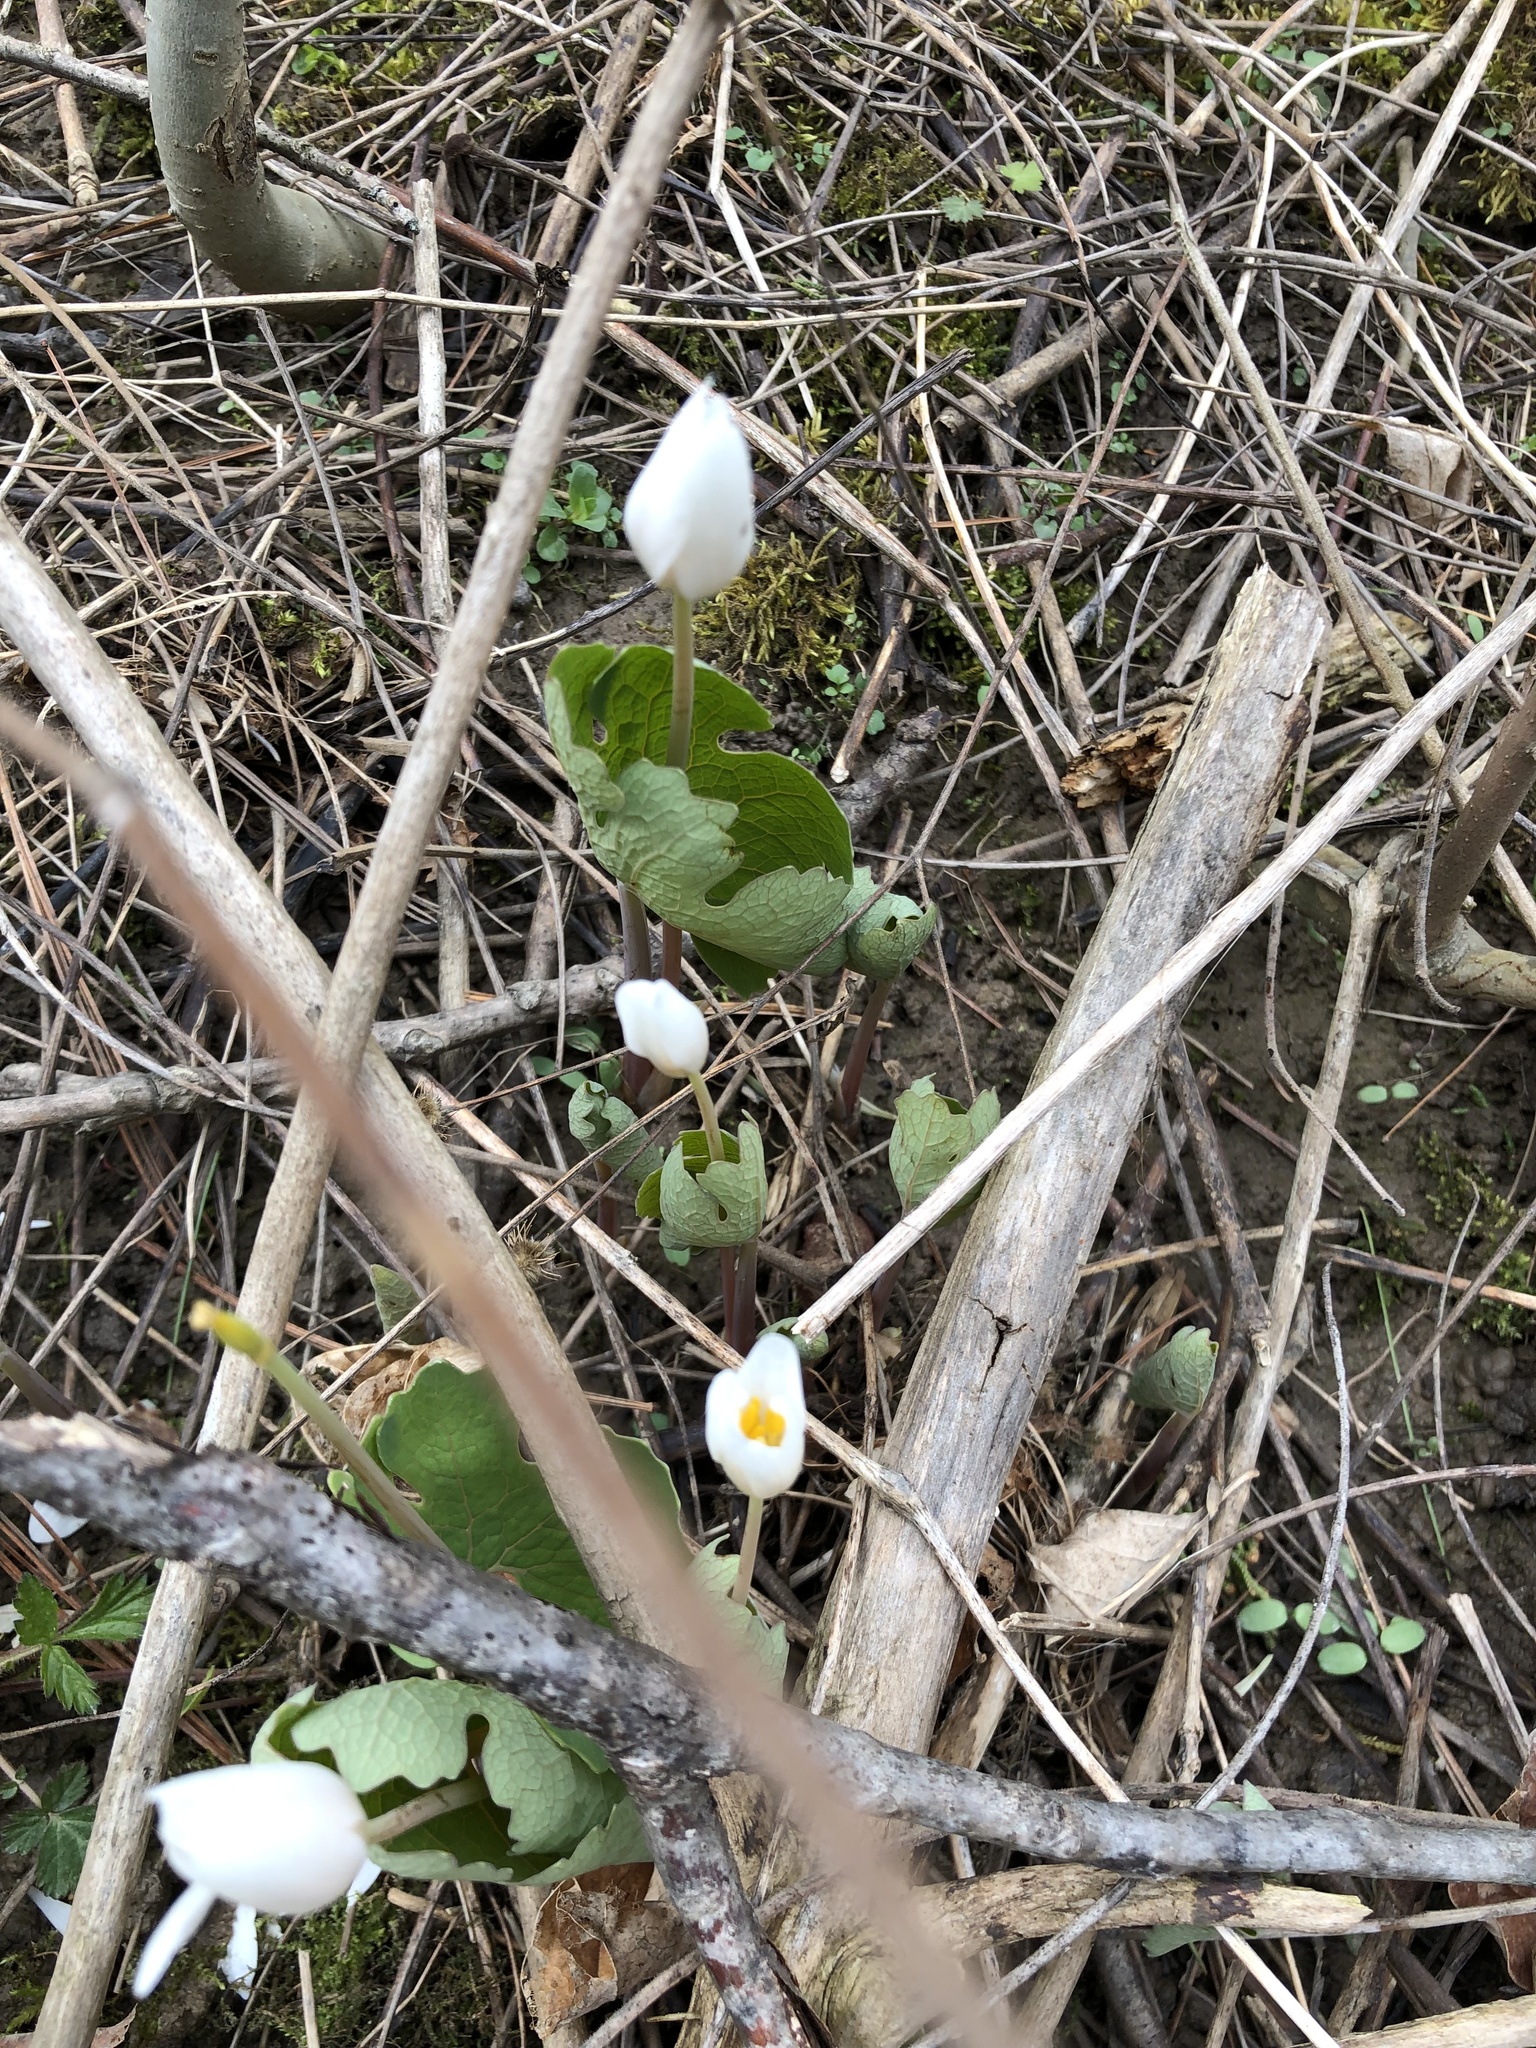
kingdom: Plantae
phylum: Tracheophyta
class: Magnoliopsida
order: Ranunculales
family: Papaveraceae
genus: Sanguinaria
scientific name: Sanguinaria canadensis
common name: Bloodroot
